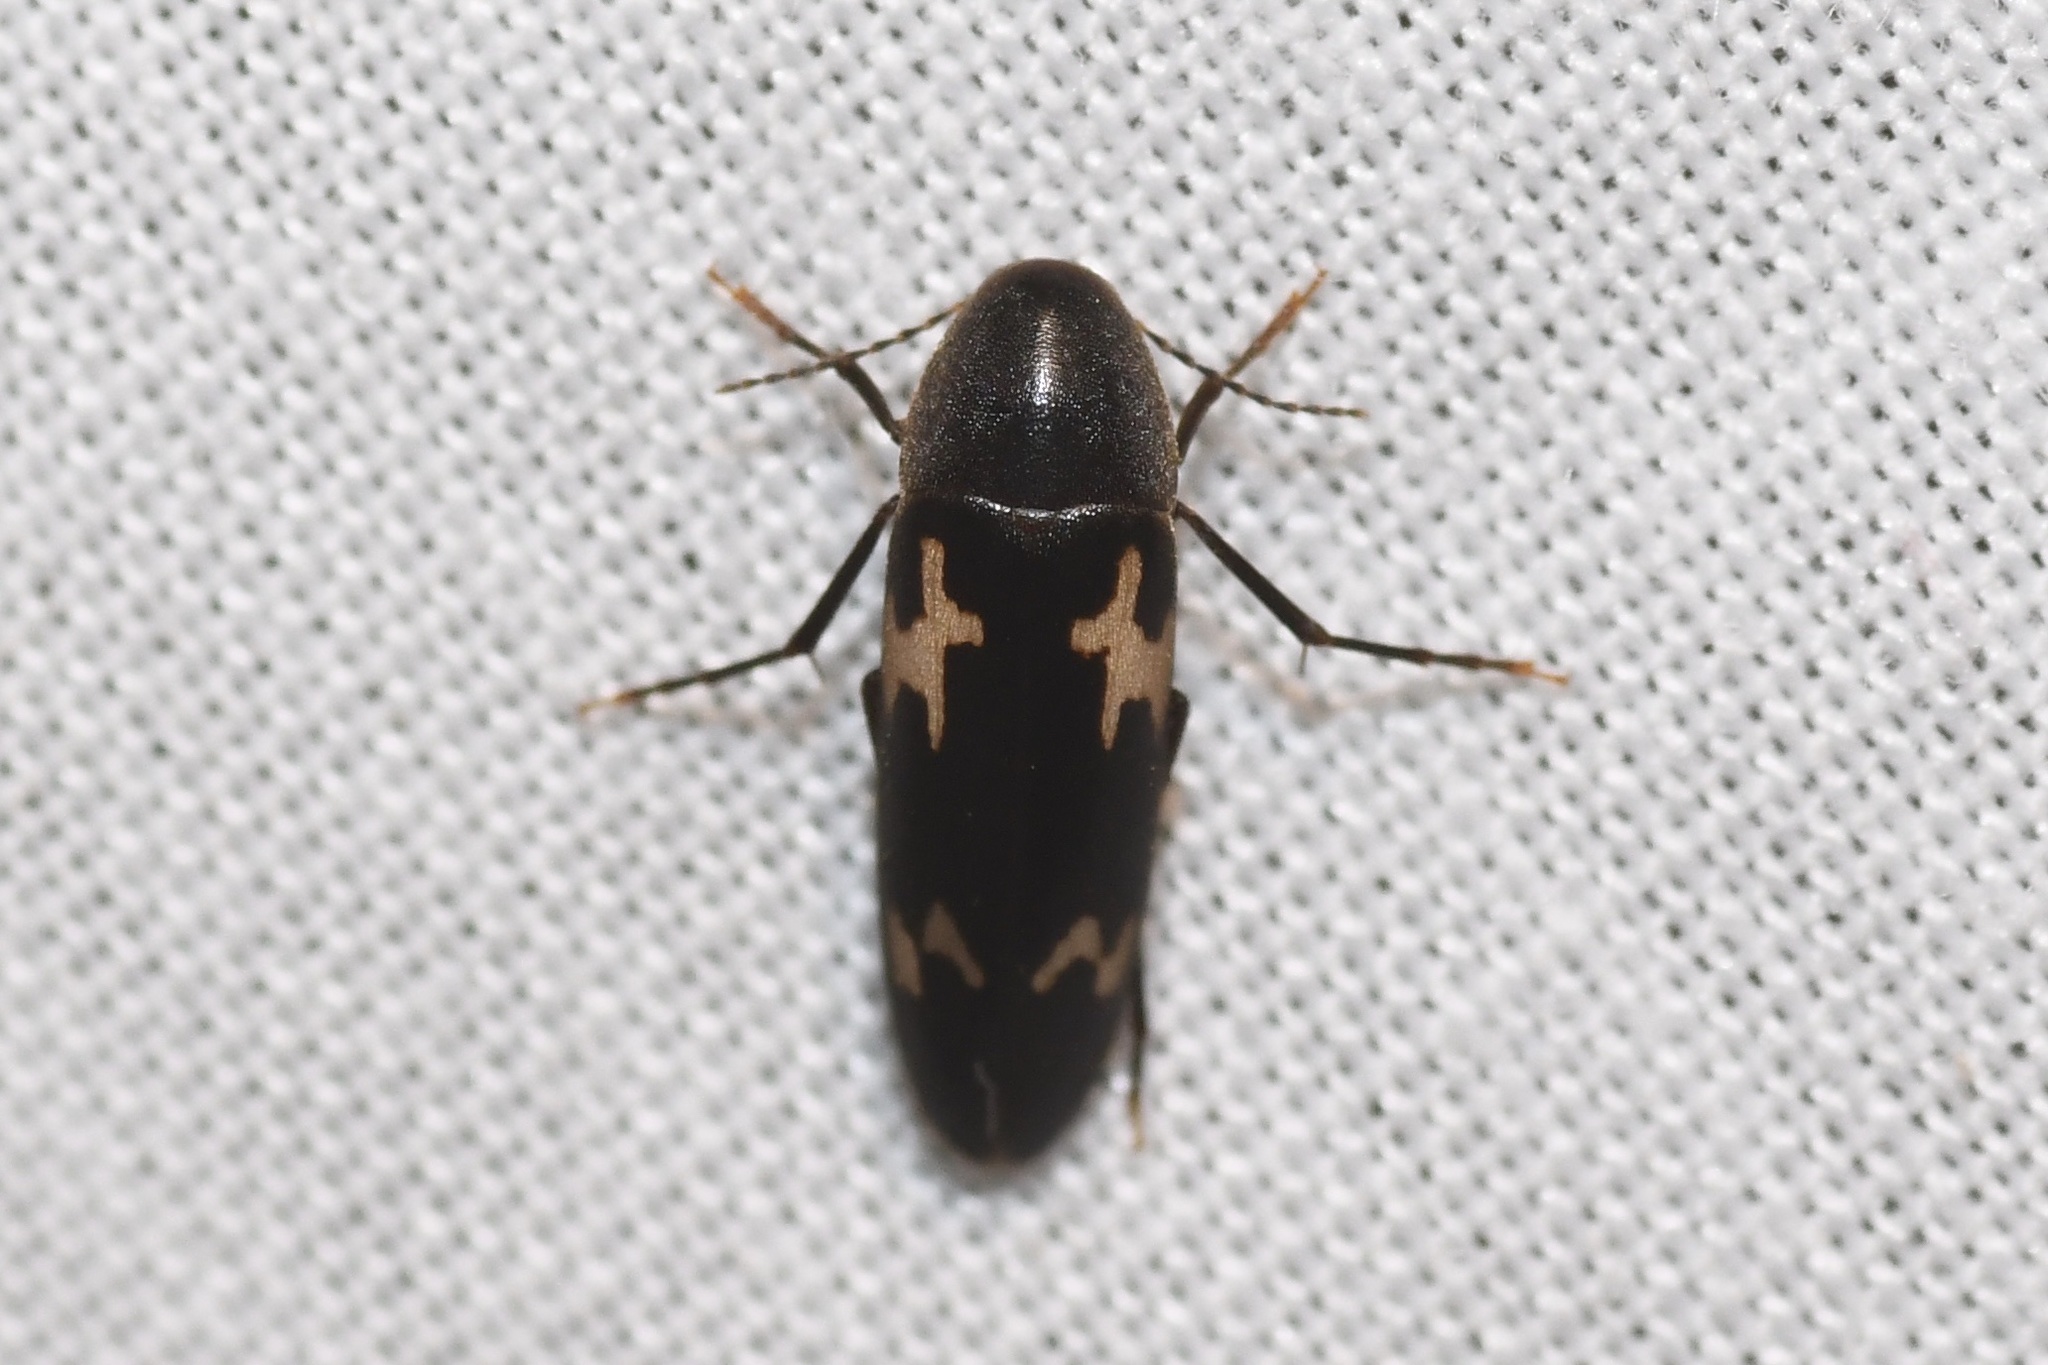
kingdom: Animalia
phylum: Arthropoda
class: Insecta
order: Coleoptera
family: Melandryidae
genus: Dircaea
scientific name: Dircaea liturata
